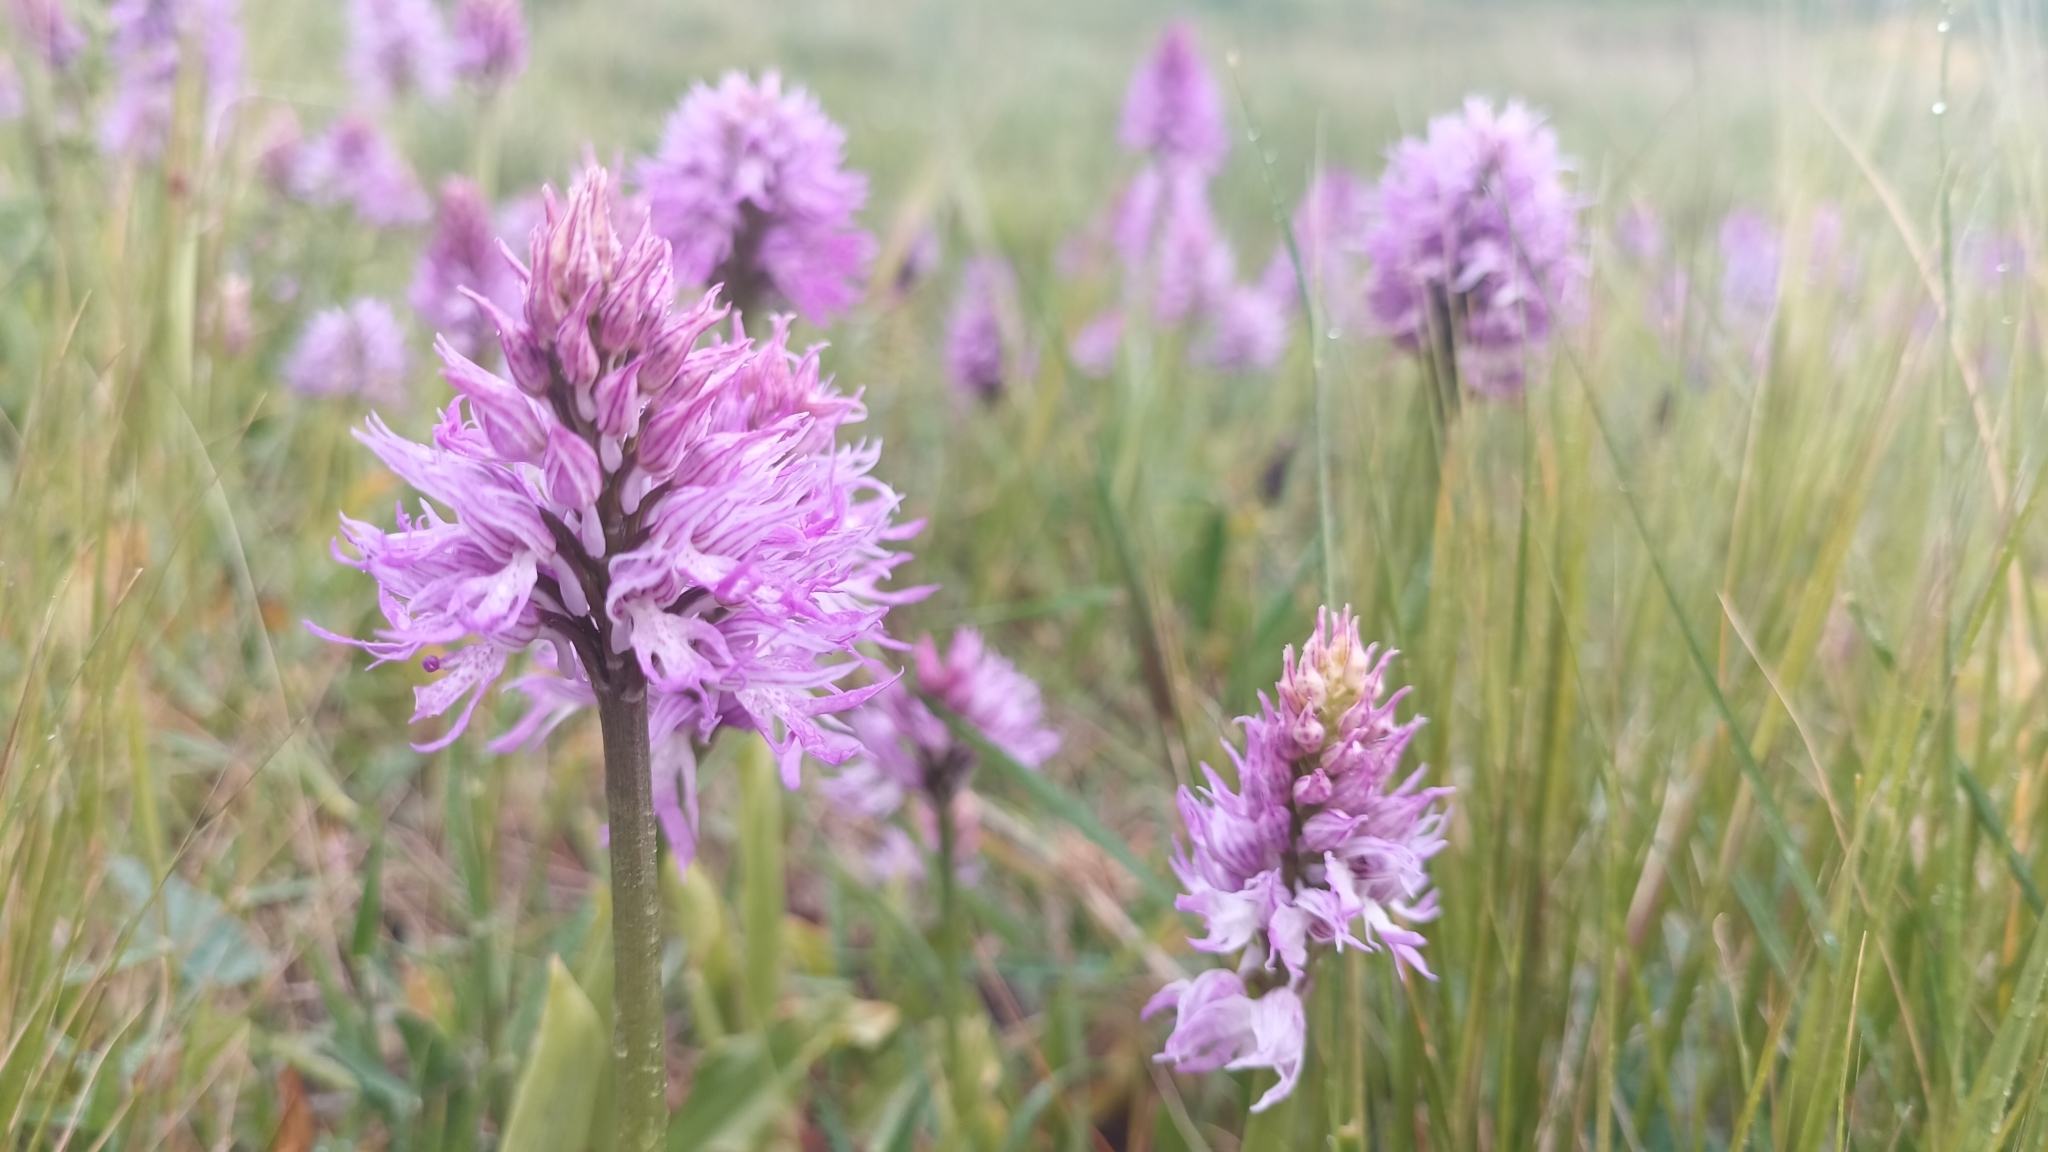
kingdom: Plantae
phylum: Tracheophyta
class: Liliopsida
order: Asparagales
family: Orchidaceae
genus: Orchis
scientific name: Orchis italica
